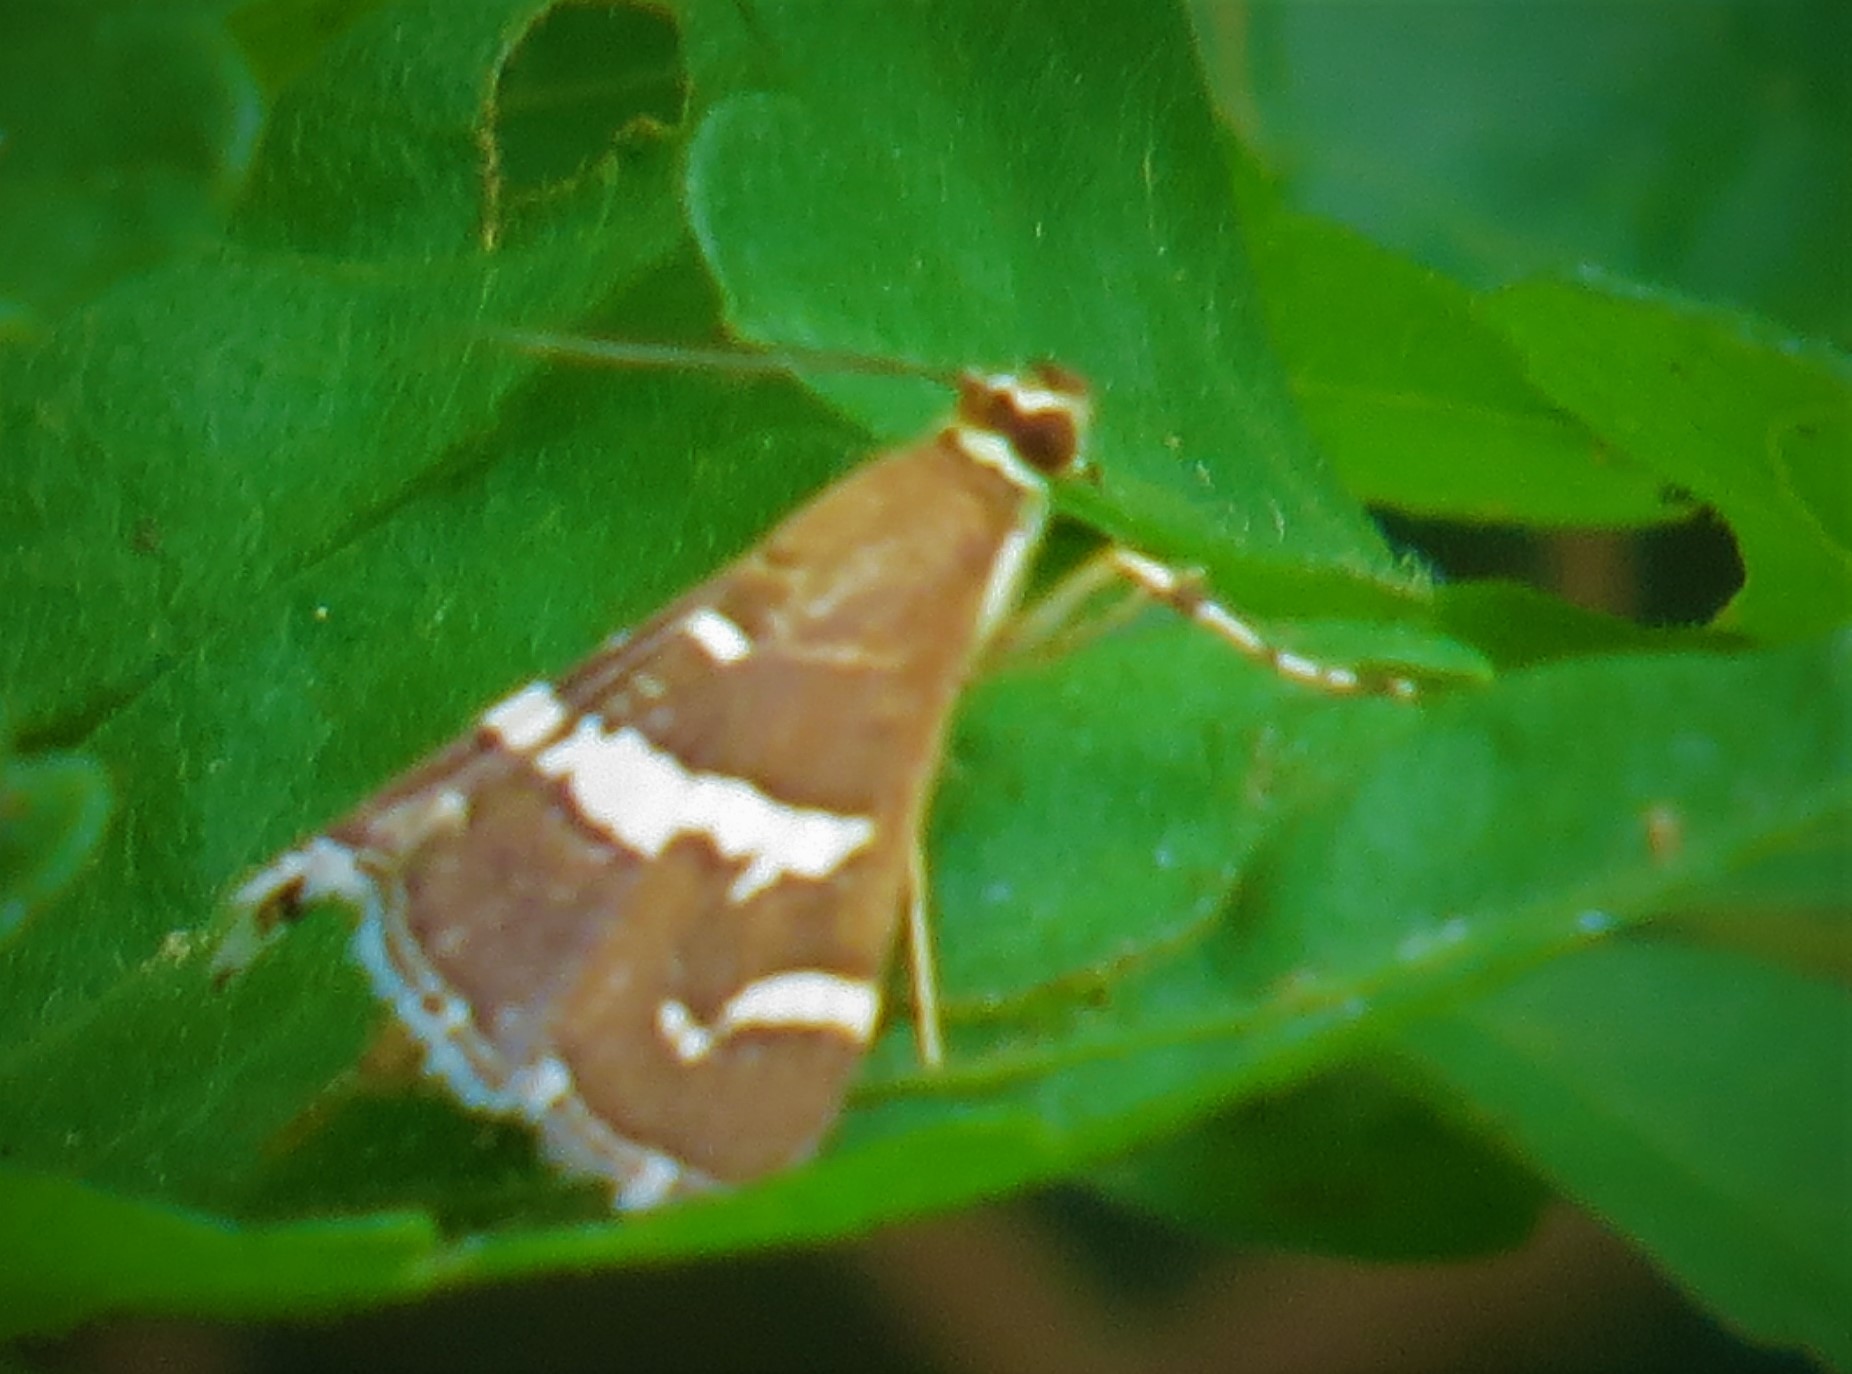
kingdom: Animalia
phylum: Arthropoda
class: Insecta
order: Lepidoptera
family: Crambidae
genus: Spoladea
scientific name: Spoladea recurvalis
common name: Beet webworm moth
